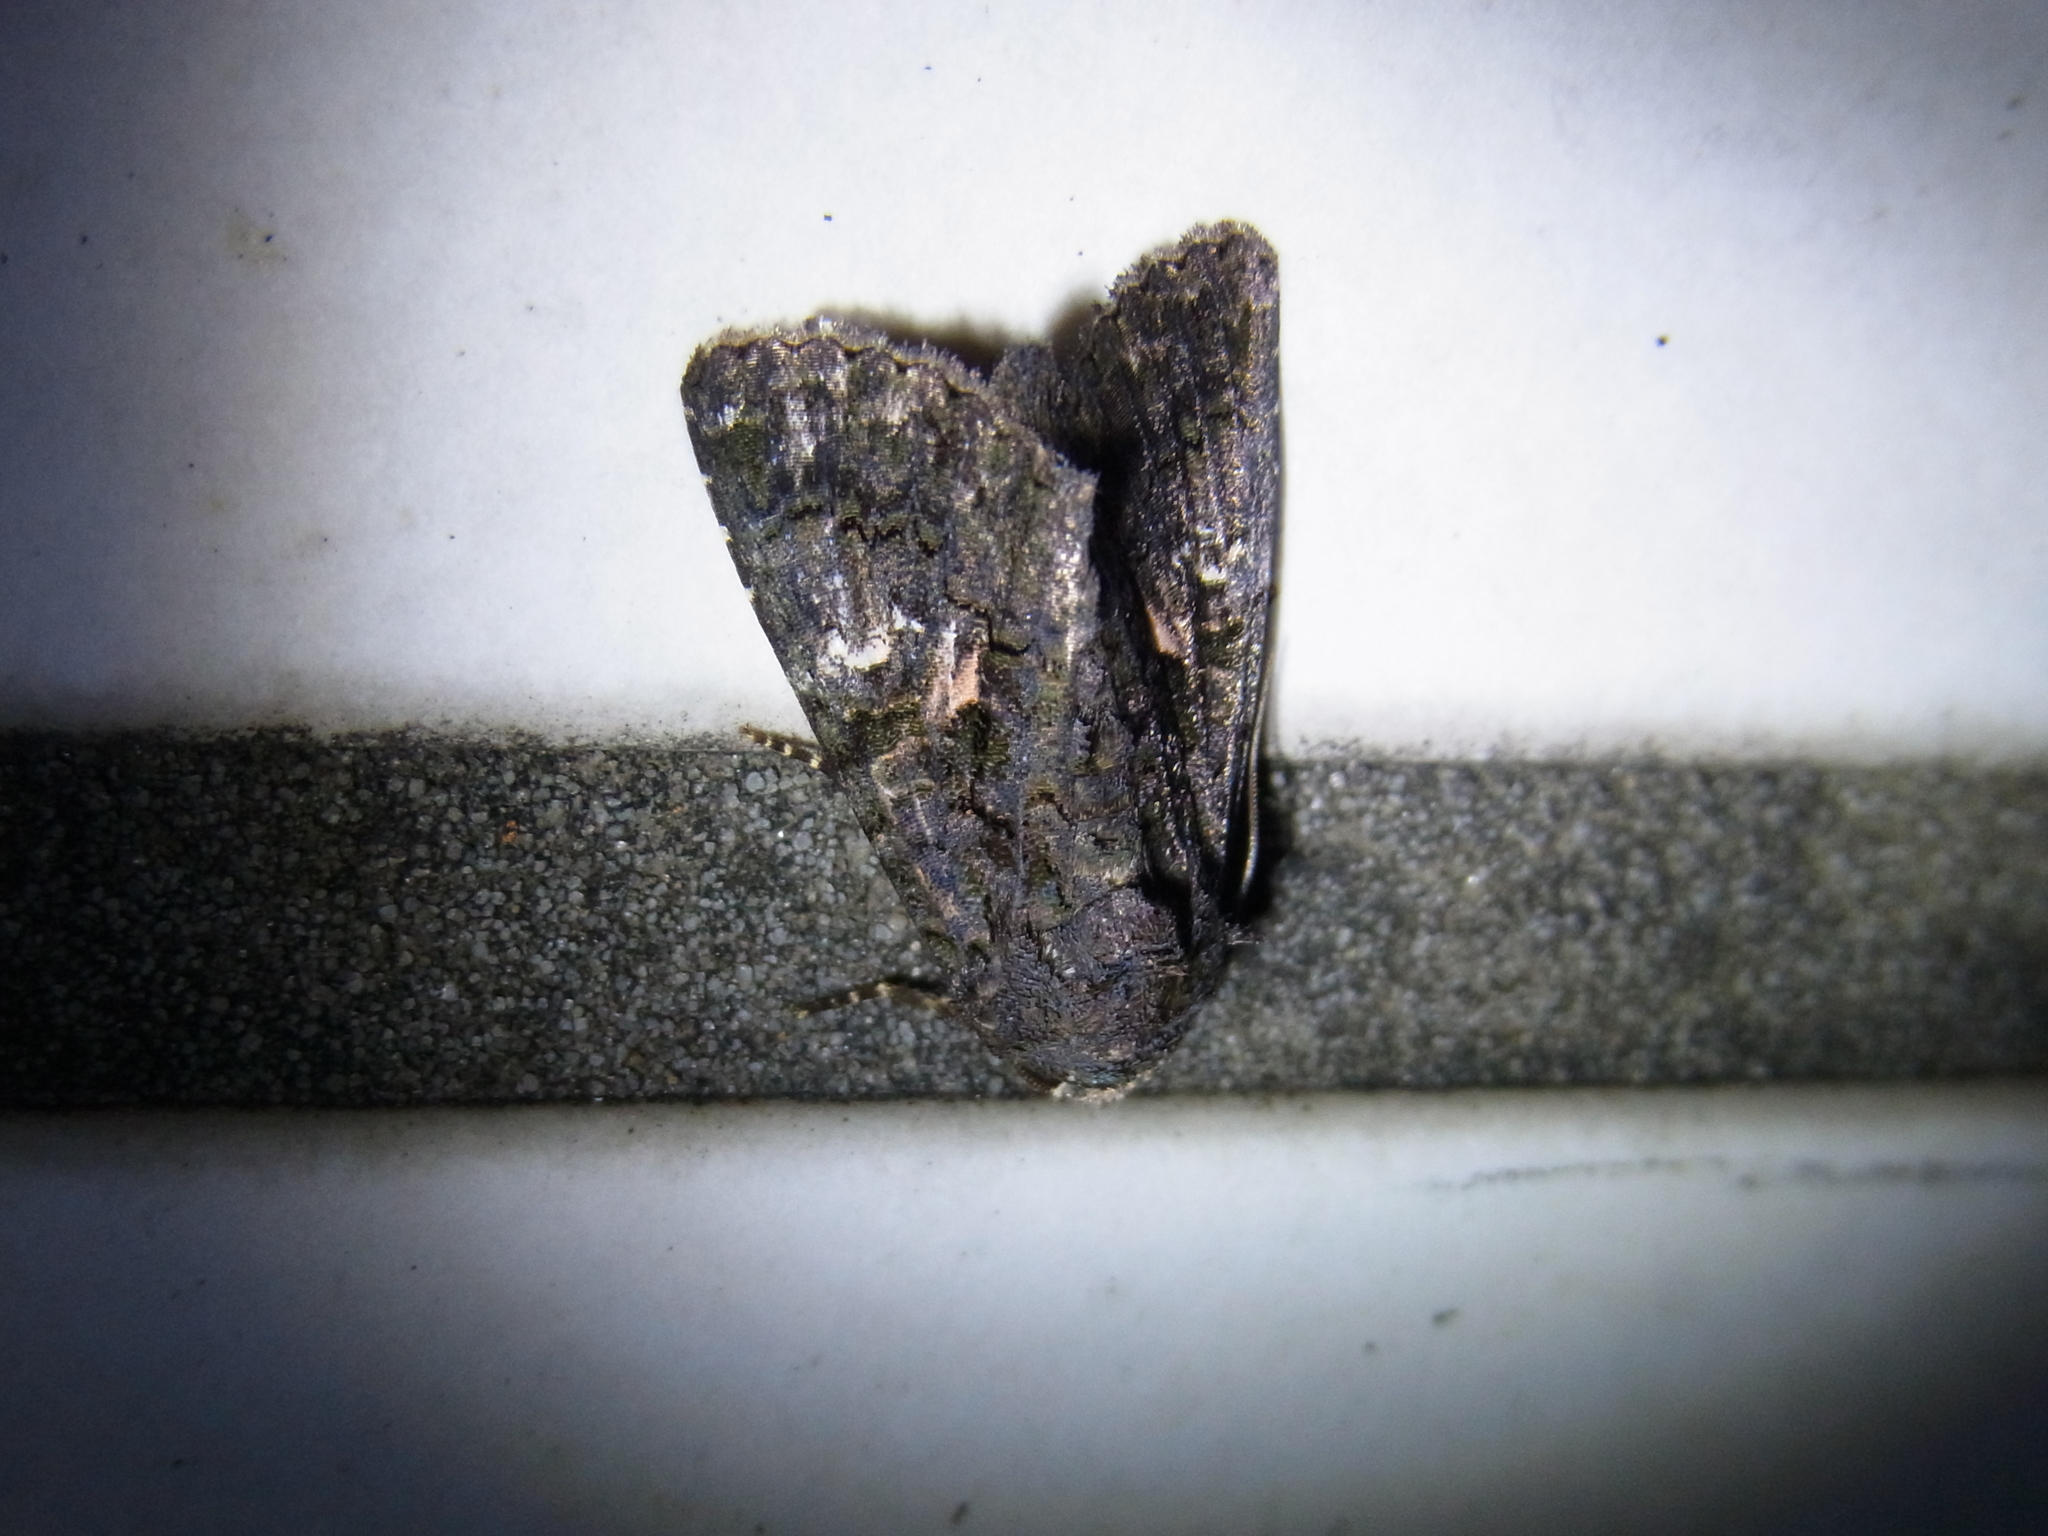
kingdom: Animalia
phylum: Arthropoda
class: Insecta
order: Lepidoptera
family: Noctuidae
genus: Aedia
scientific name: Aedia leucomelas
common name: Sorcerer
